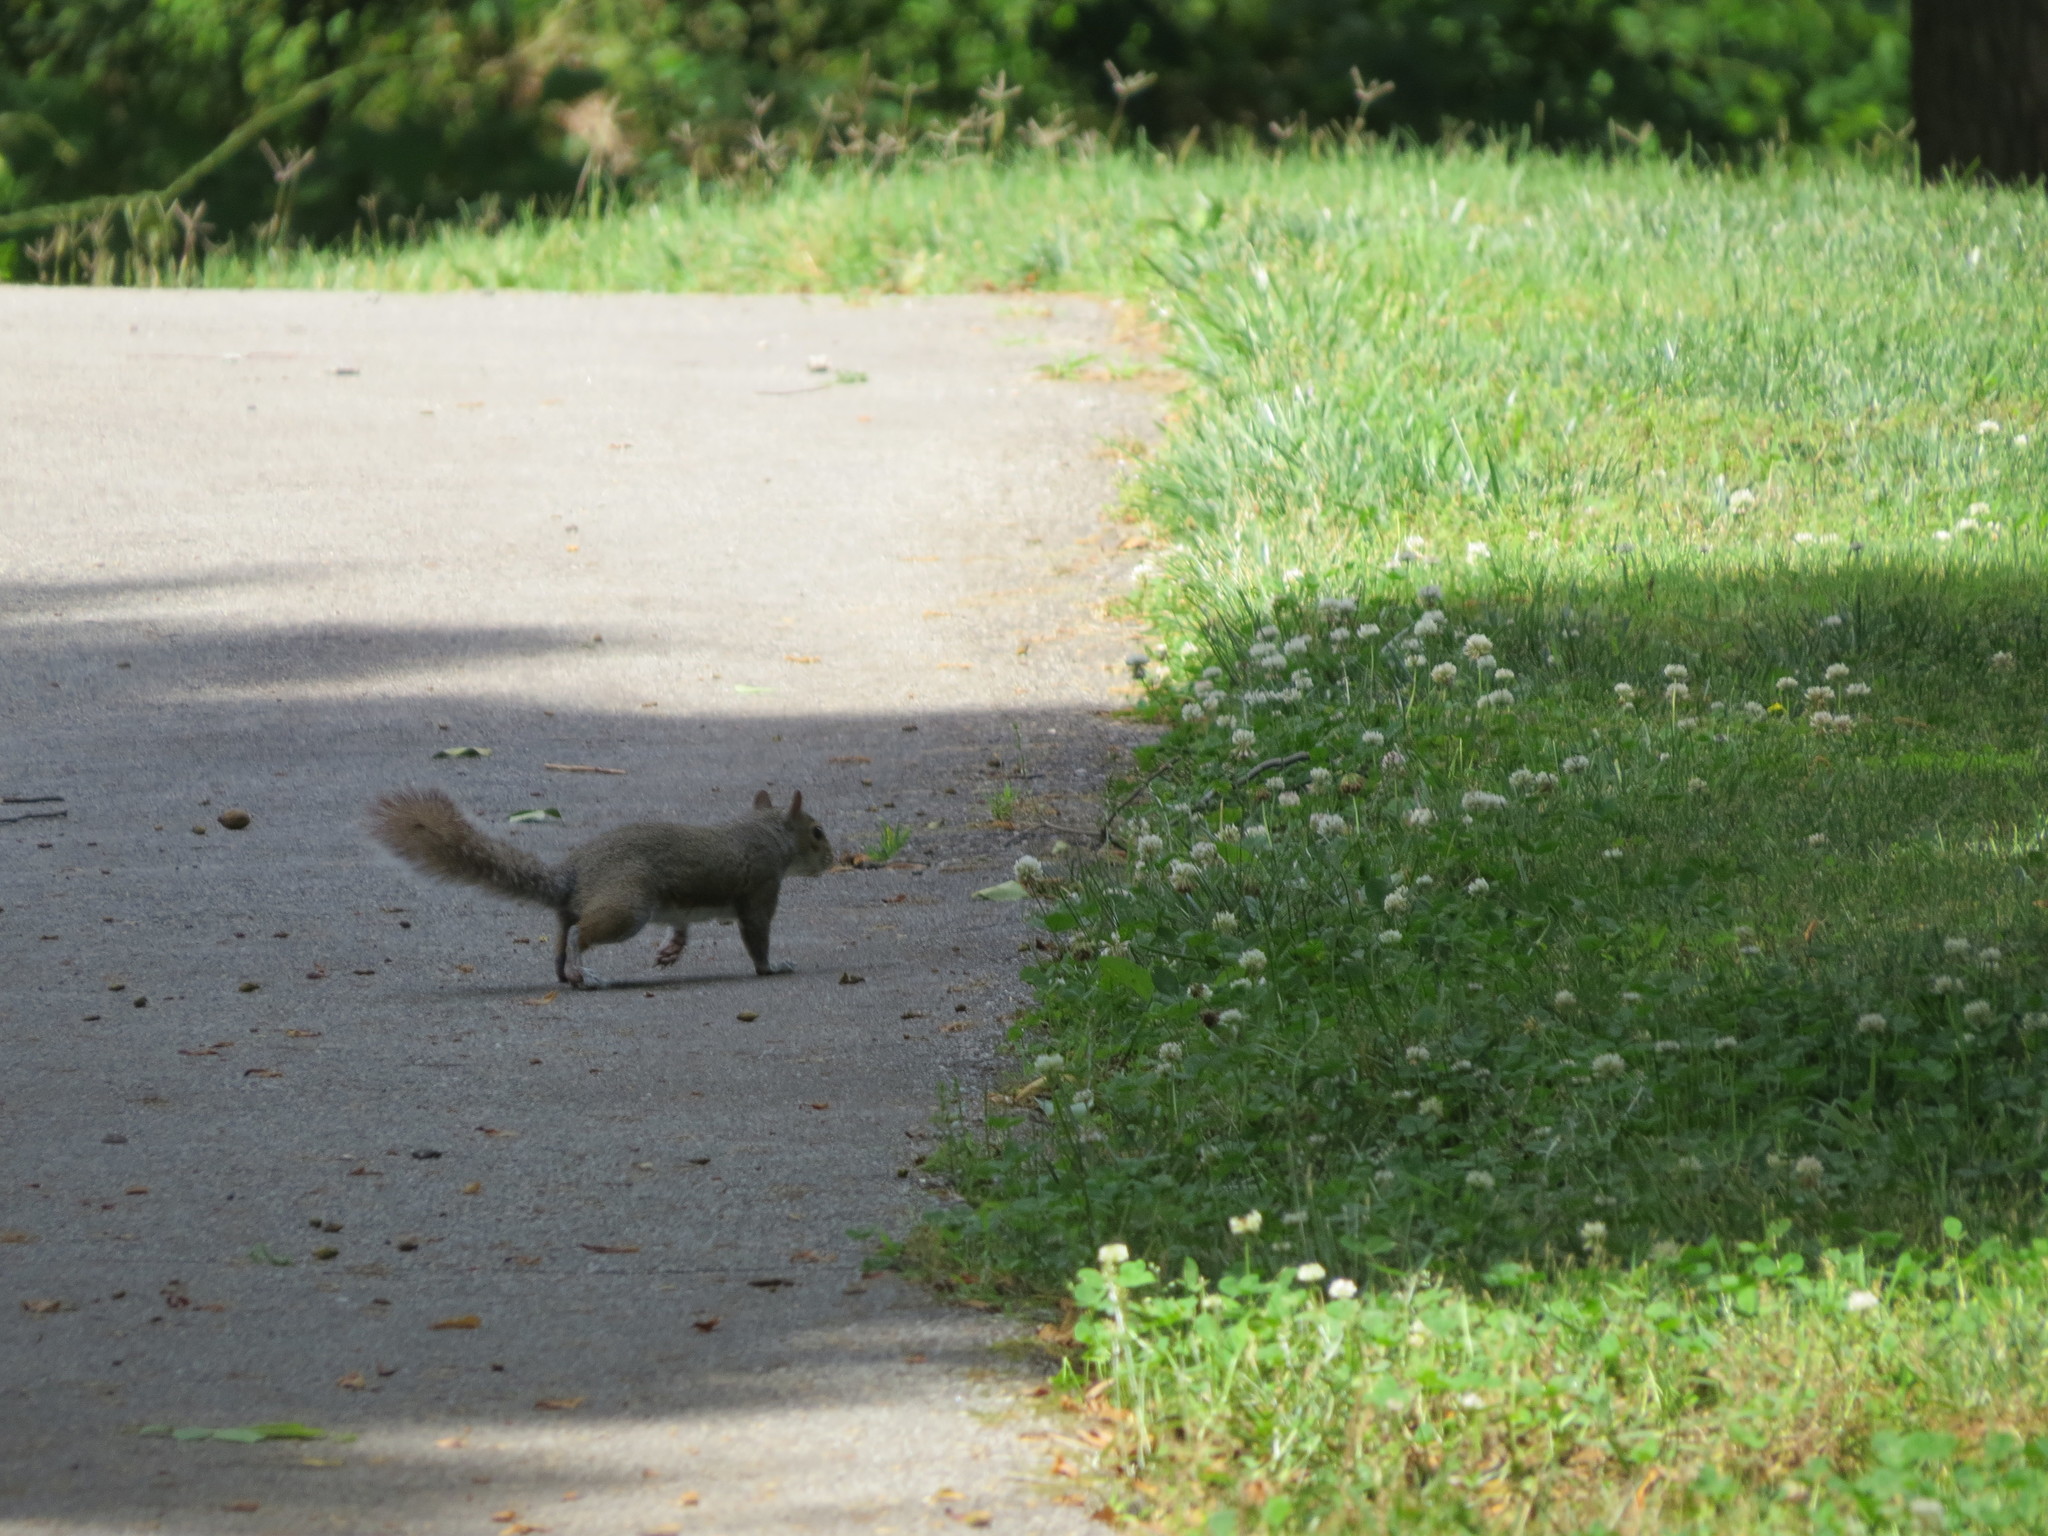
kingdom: Animalia
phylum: Chordata
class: Mammalia
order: Rodentia
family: Sciuridae
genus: Sciurus
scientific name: Sciurus carolinensis
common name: Eastern gray squirrel
